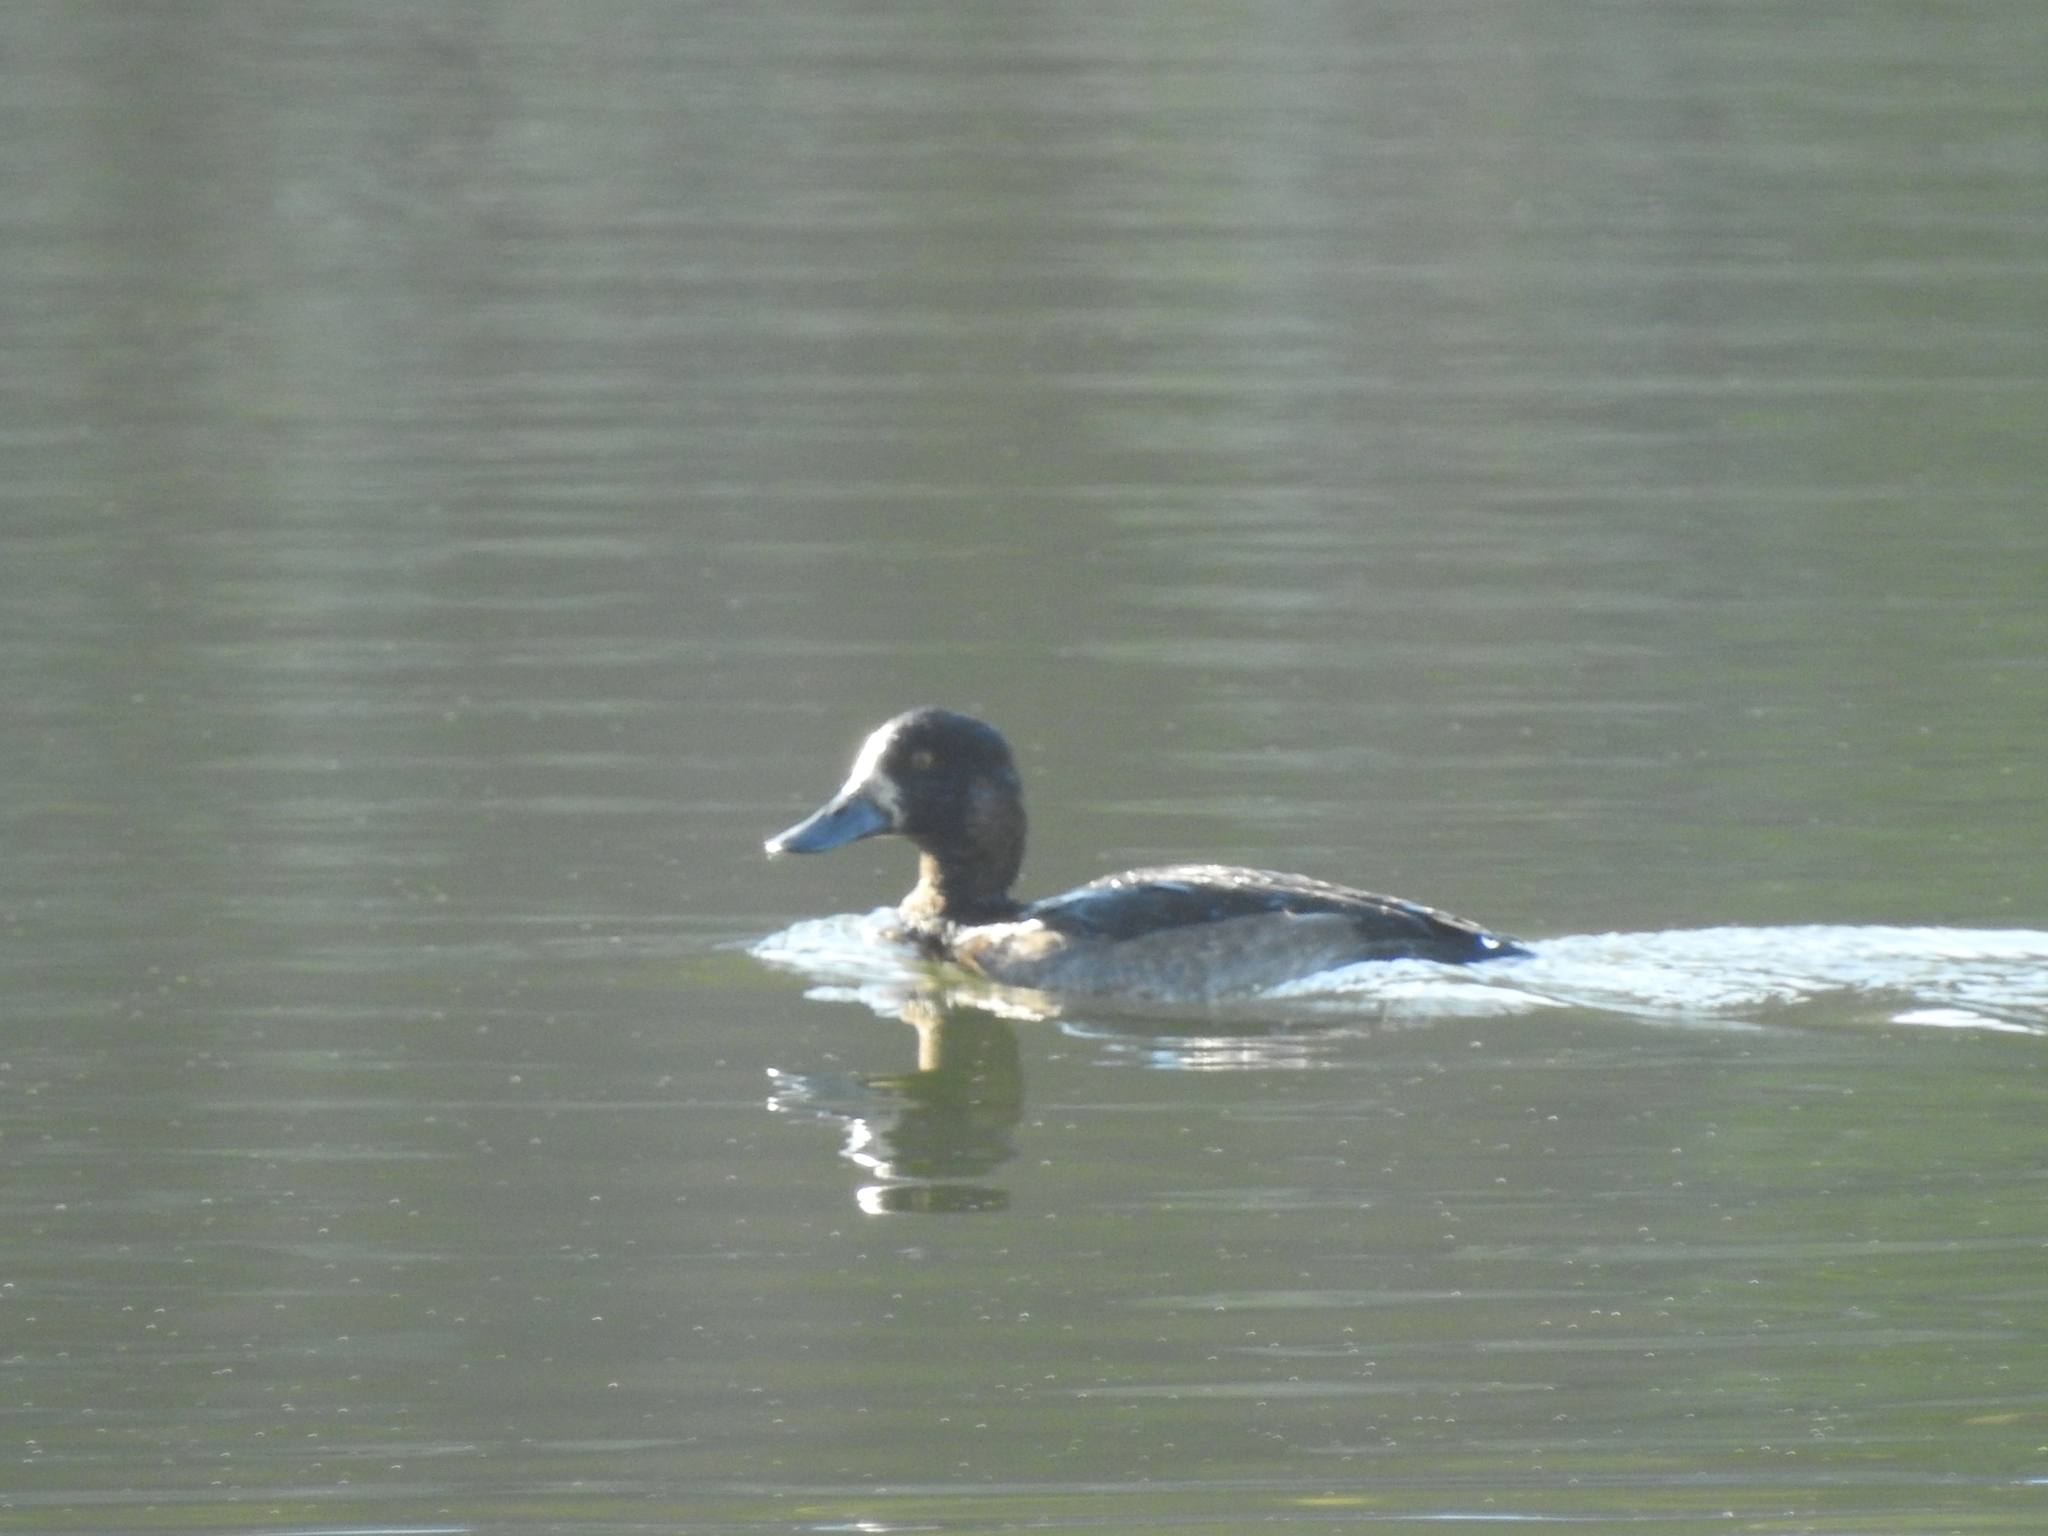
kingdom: Animalia
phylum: Chordata
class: Aves
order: Anseriformes
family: Anatidae
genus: Aythya
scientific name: Aythya fuligula
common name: Tufted duck
